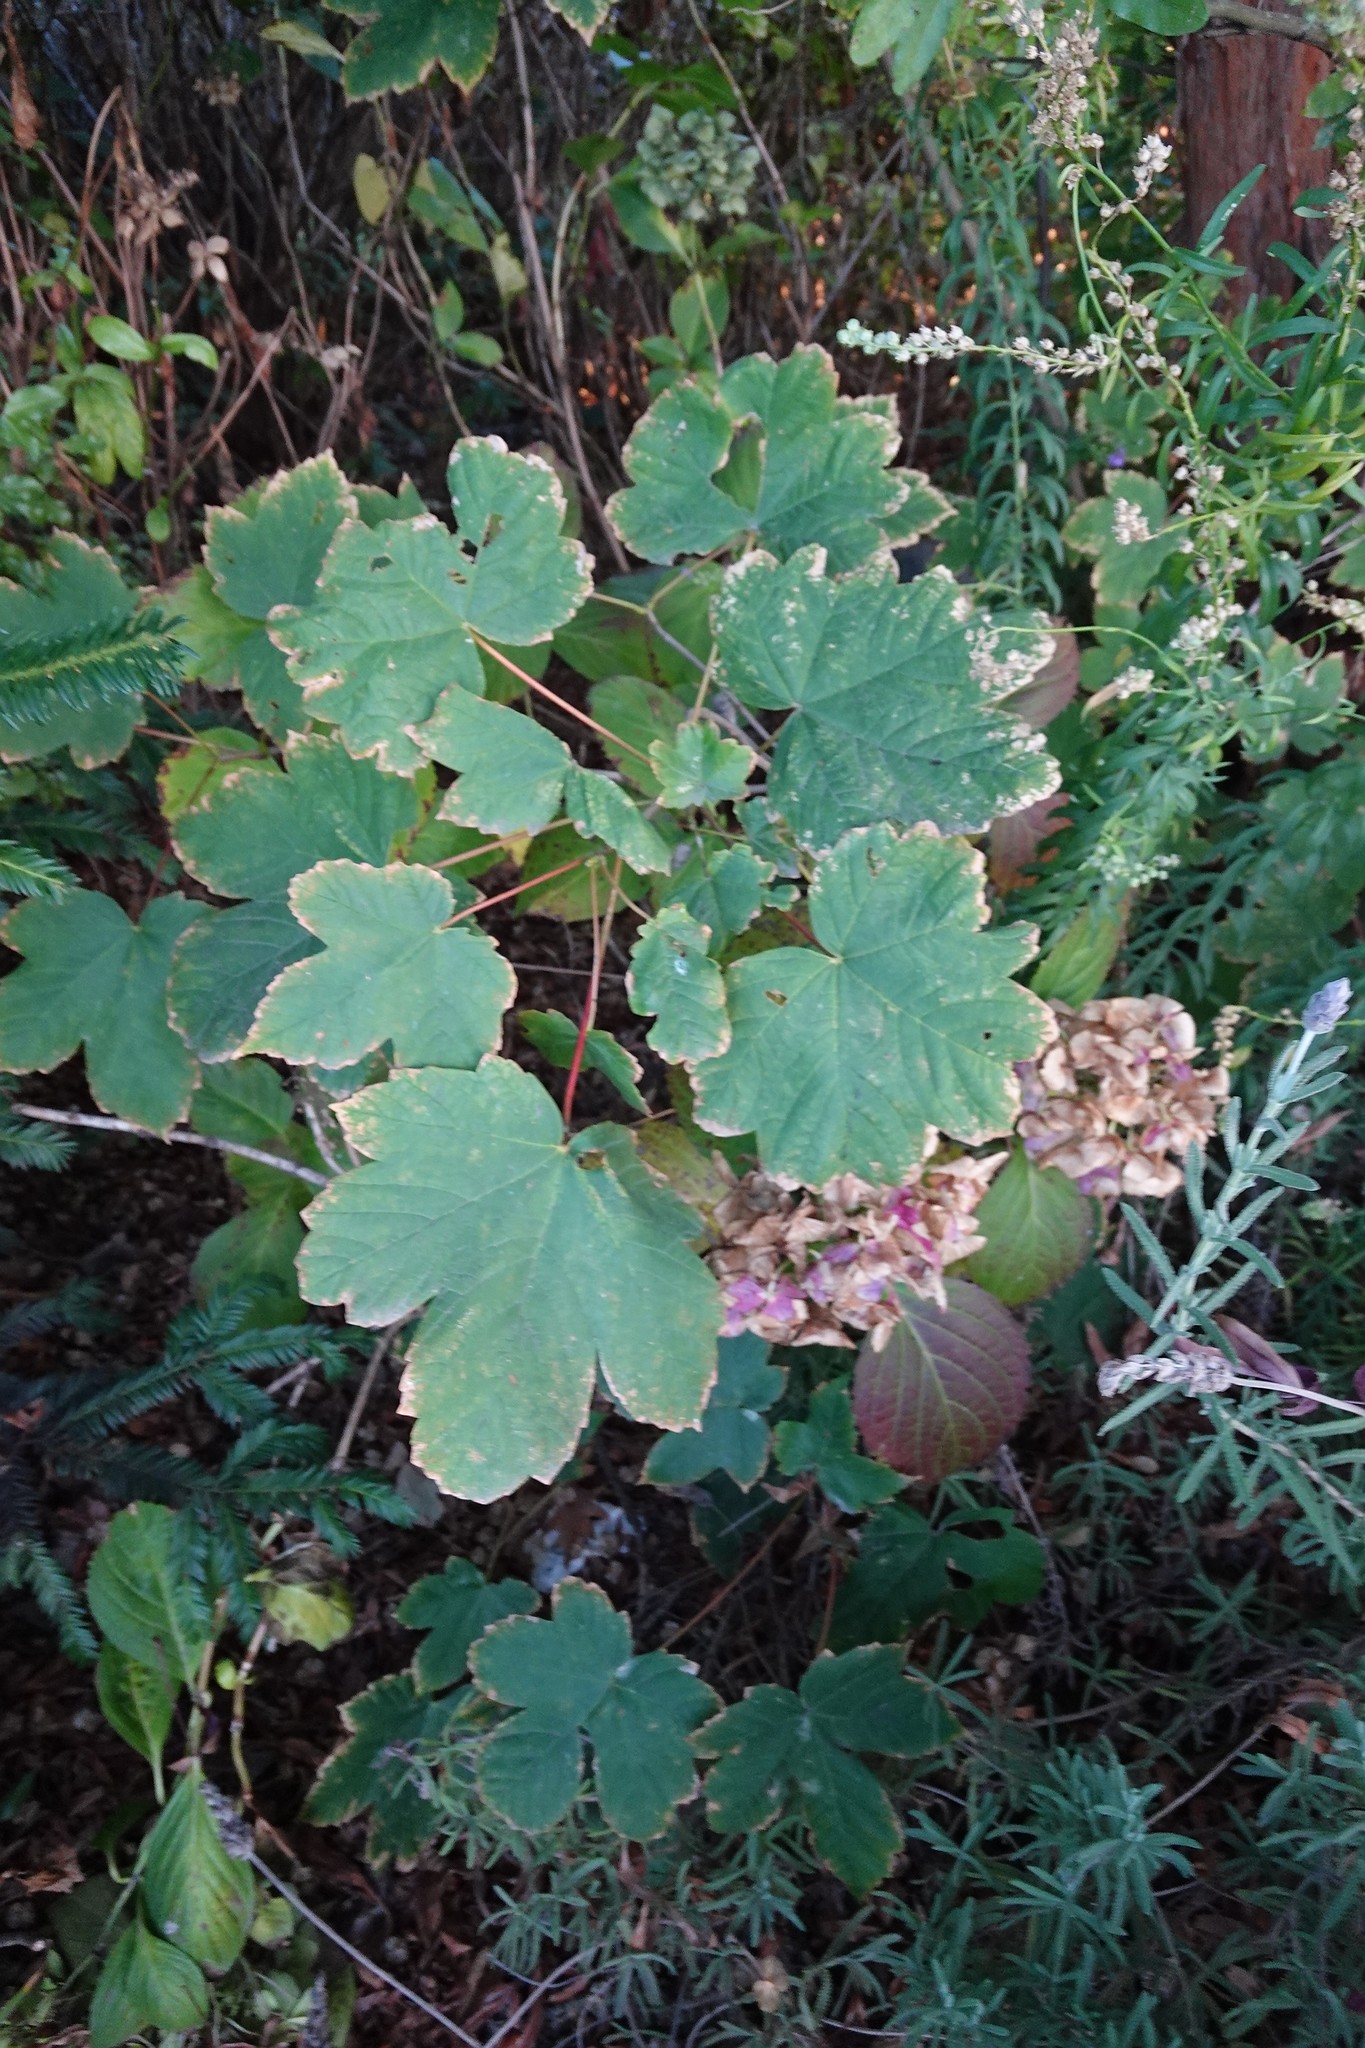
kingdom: Plantae
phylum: Tracheophyta
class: Magnoliopsida
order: Sapindales
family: Sapindaceae
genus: Acer
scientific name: Acer pseudoplatanus
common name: Sycamore
